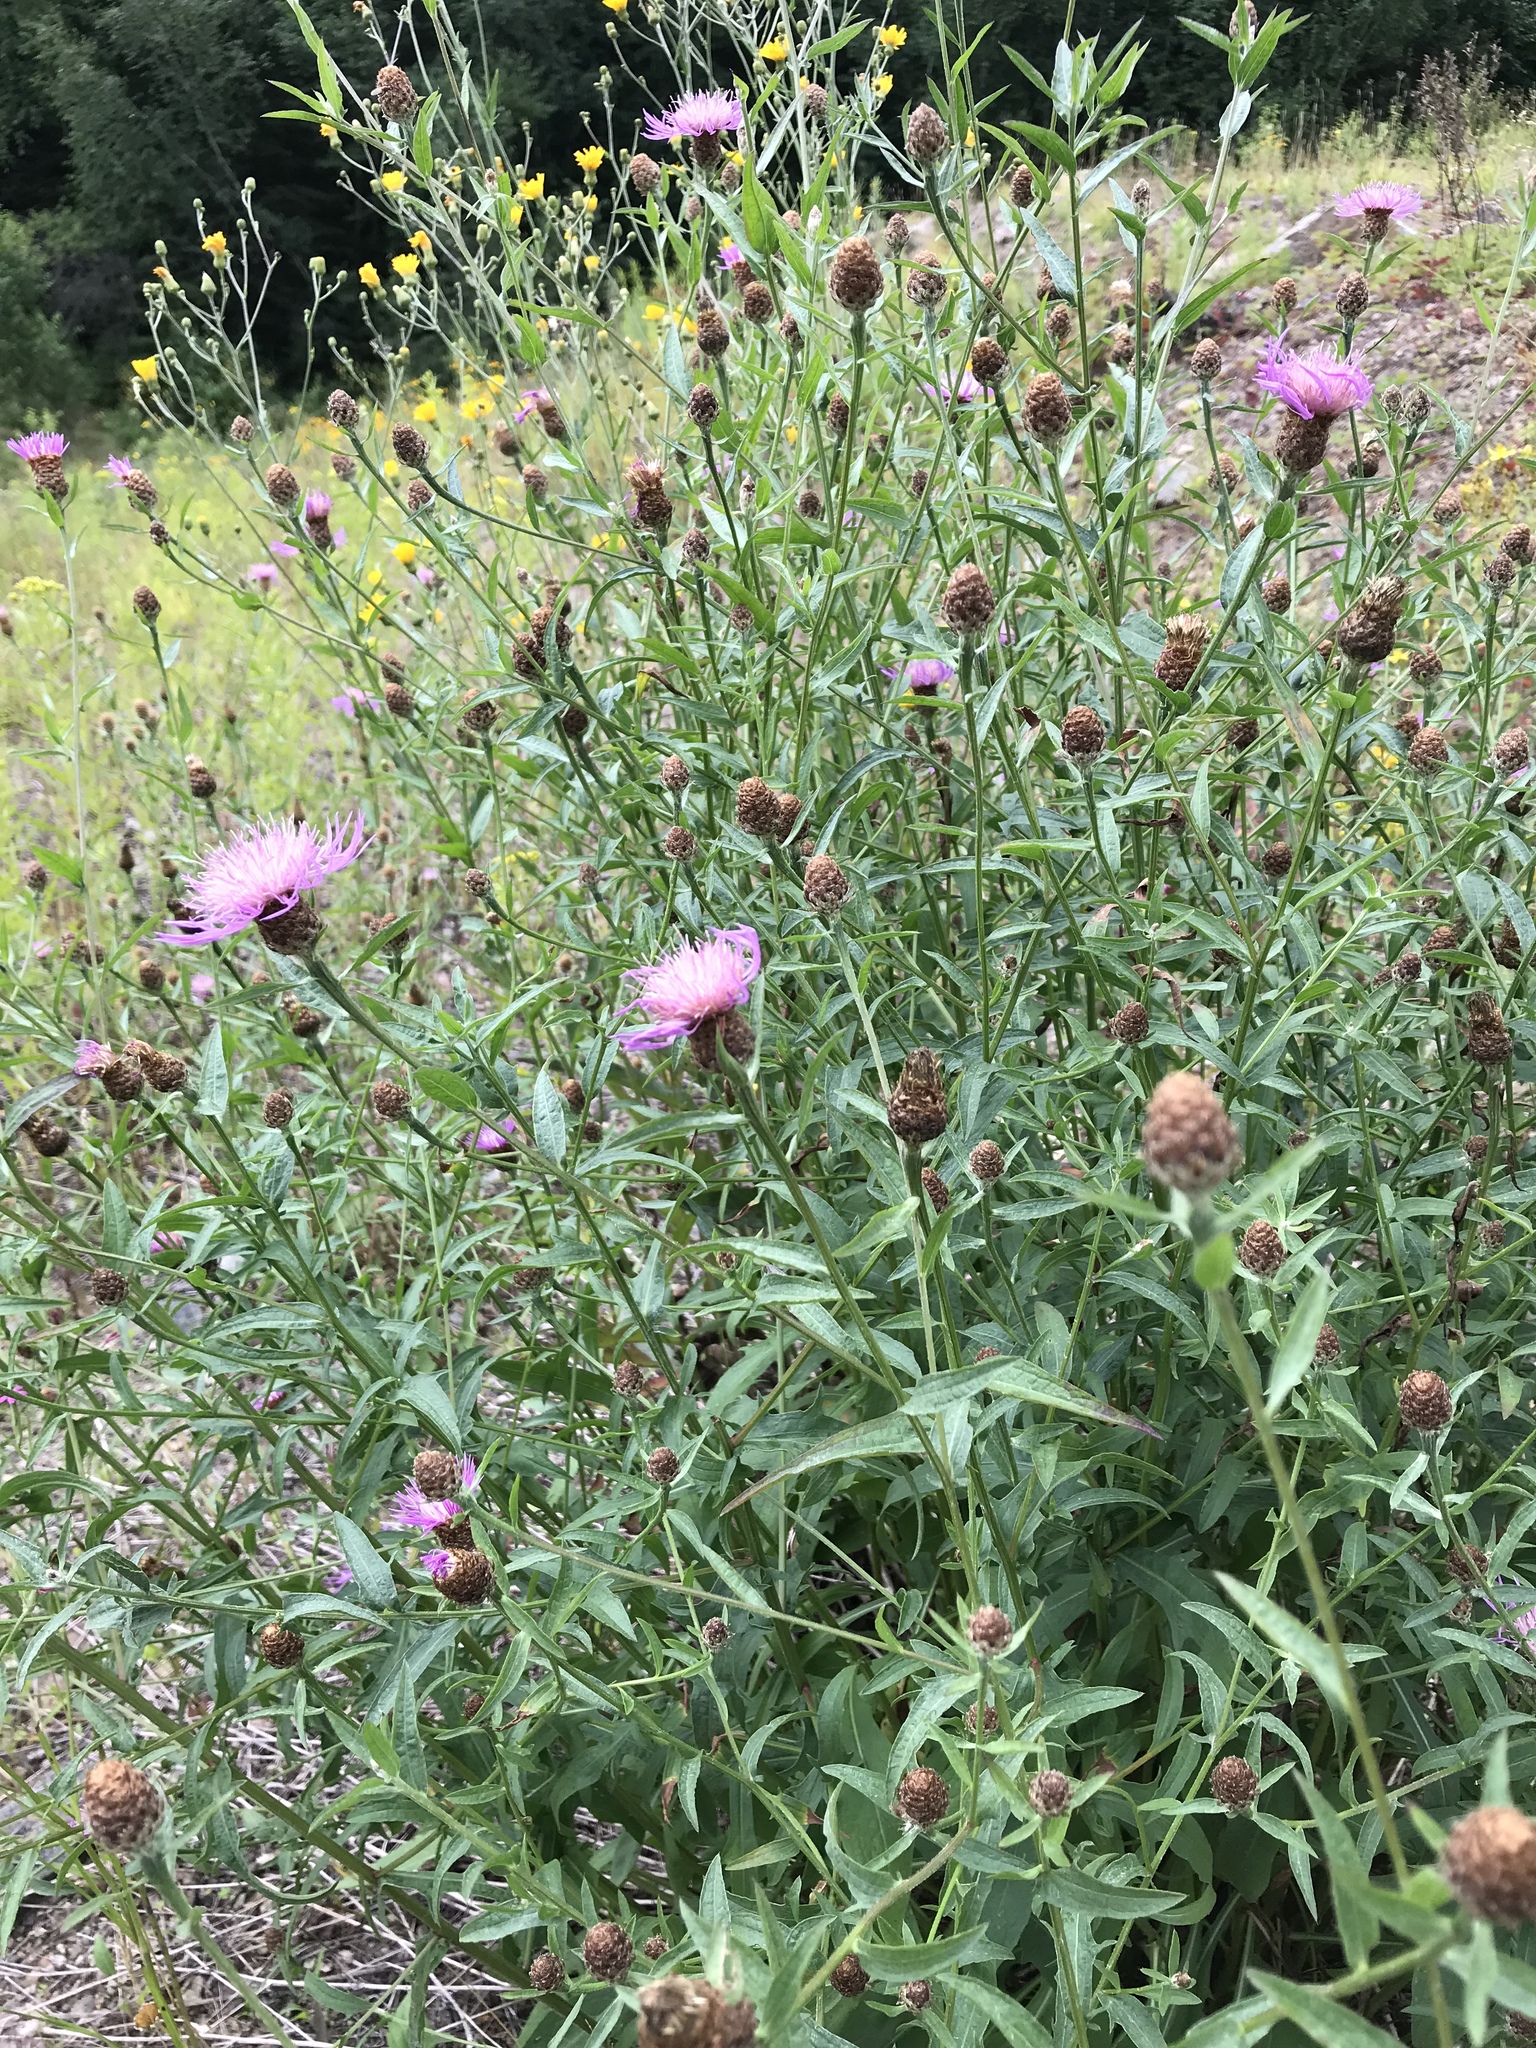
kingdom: Plantae
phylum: Tracheophyta
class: Magnoliopsida
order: Asterales
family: Asteraceae
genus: Centaurea
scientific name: Centaurea moncktonii
